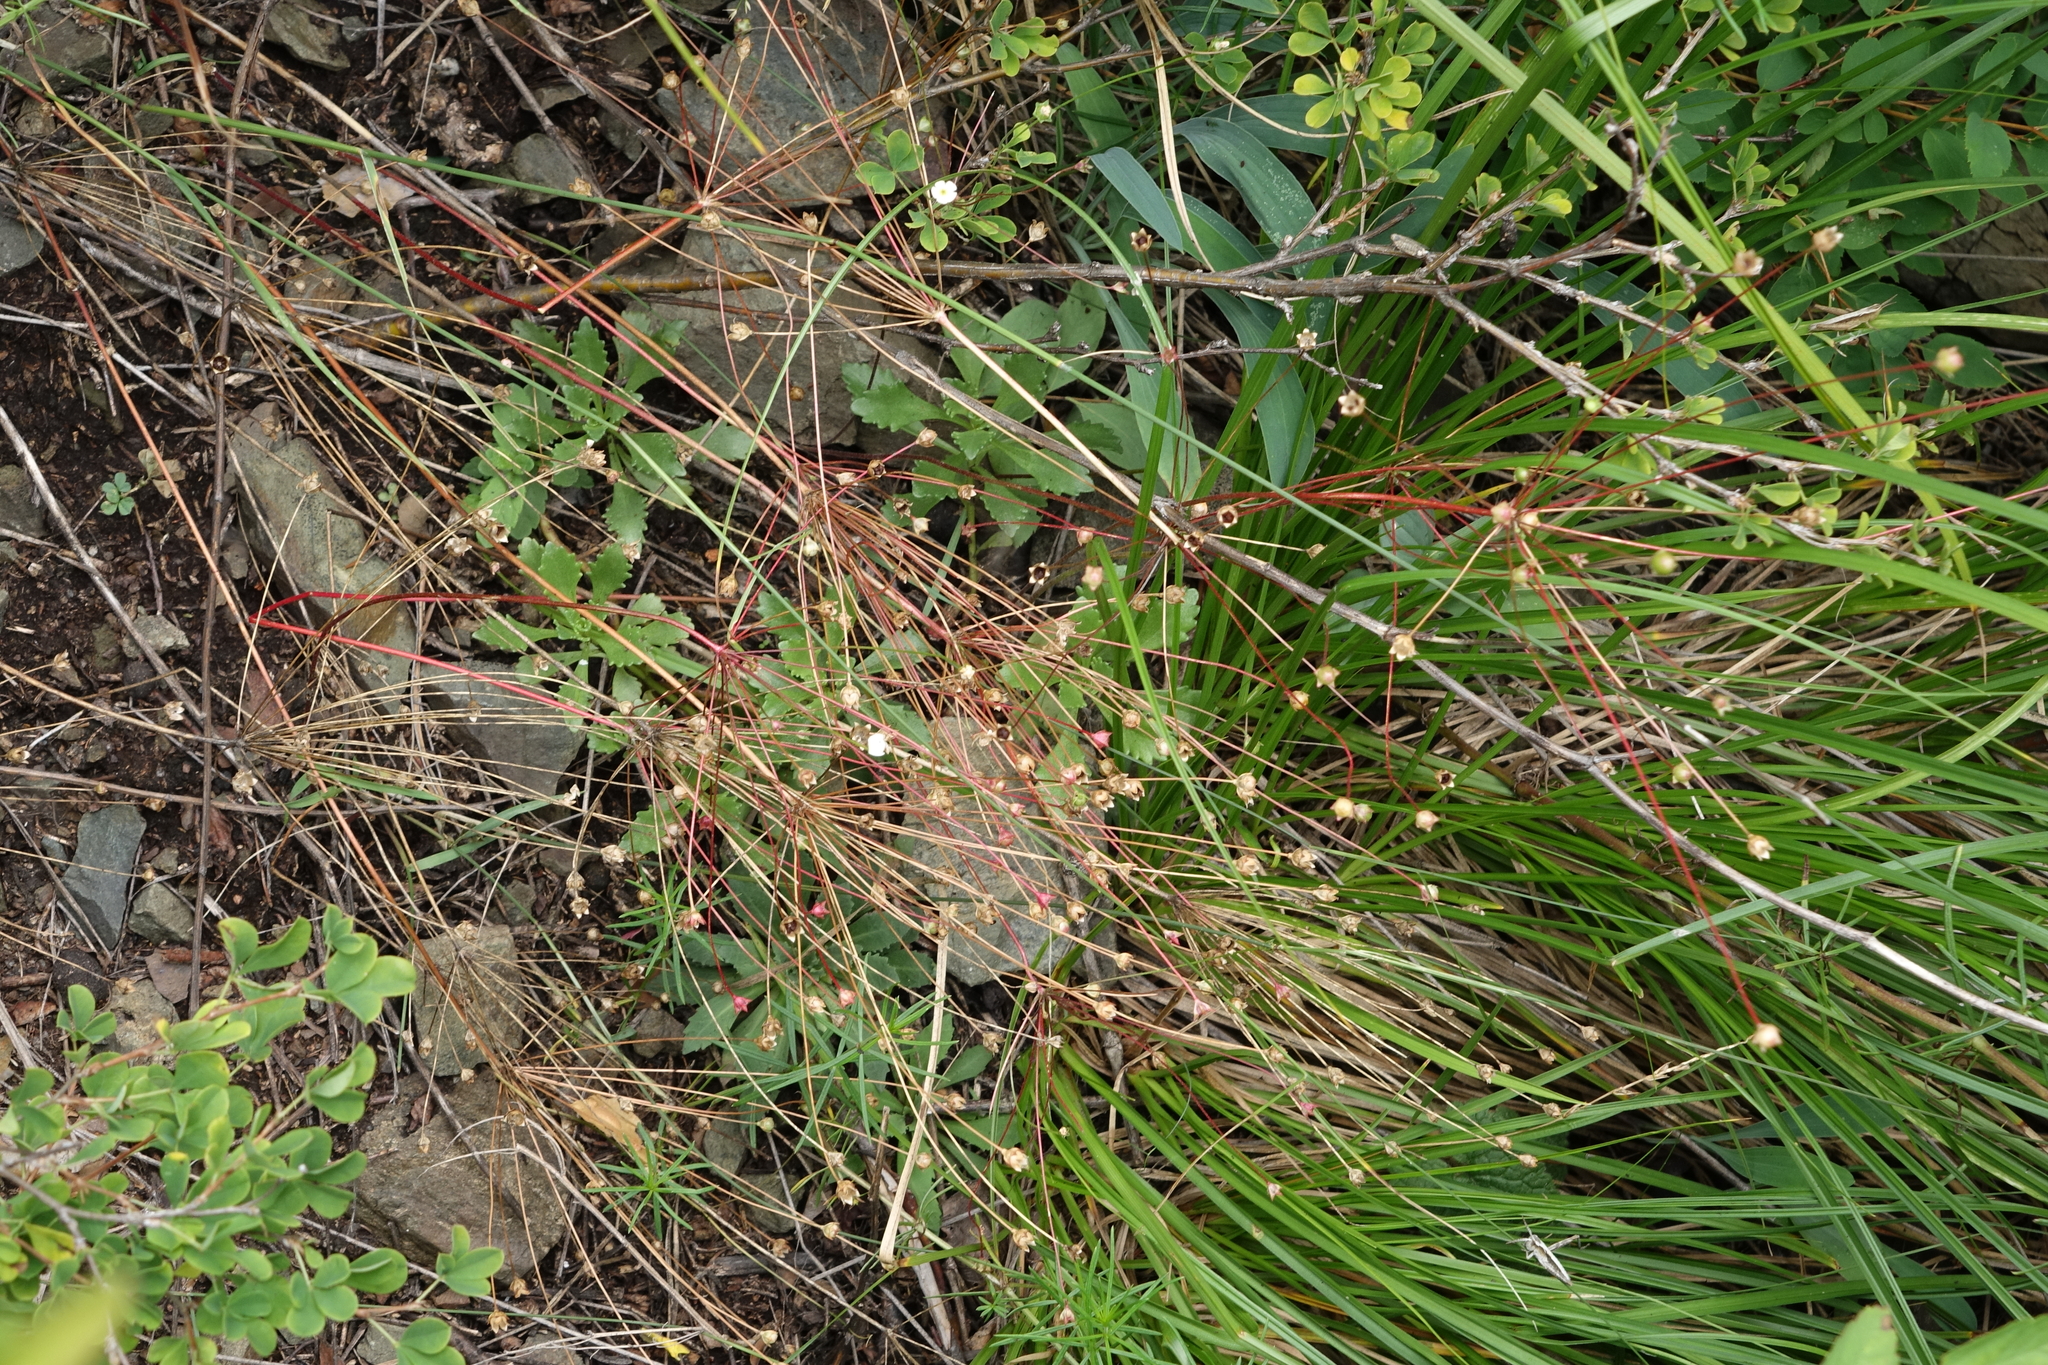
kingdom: Plantae
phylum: Tracheophyta
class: Magnoliopsida
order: Ericales
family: Primulaceae
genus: Androsace
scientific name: Androsace septentrionalis
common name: Hairy northern fairy-candelabra
